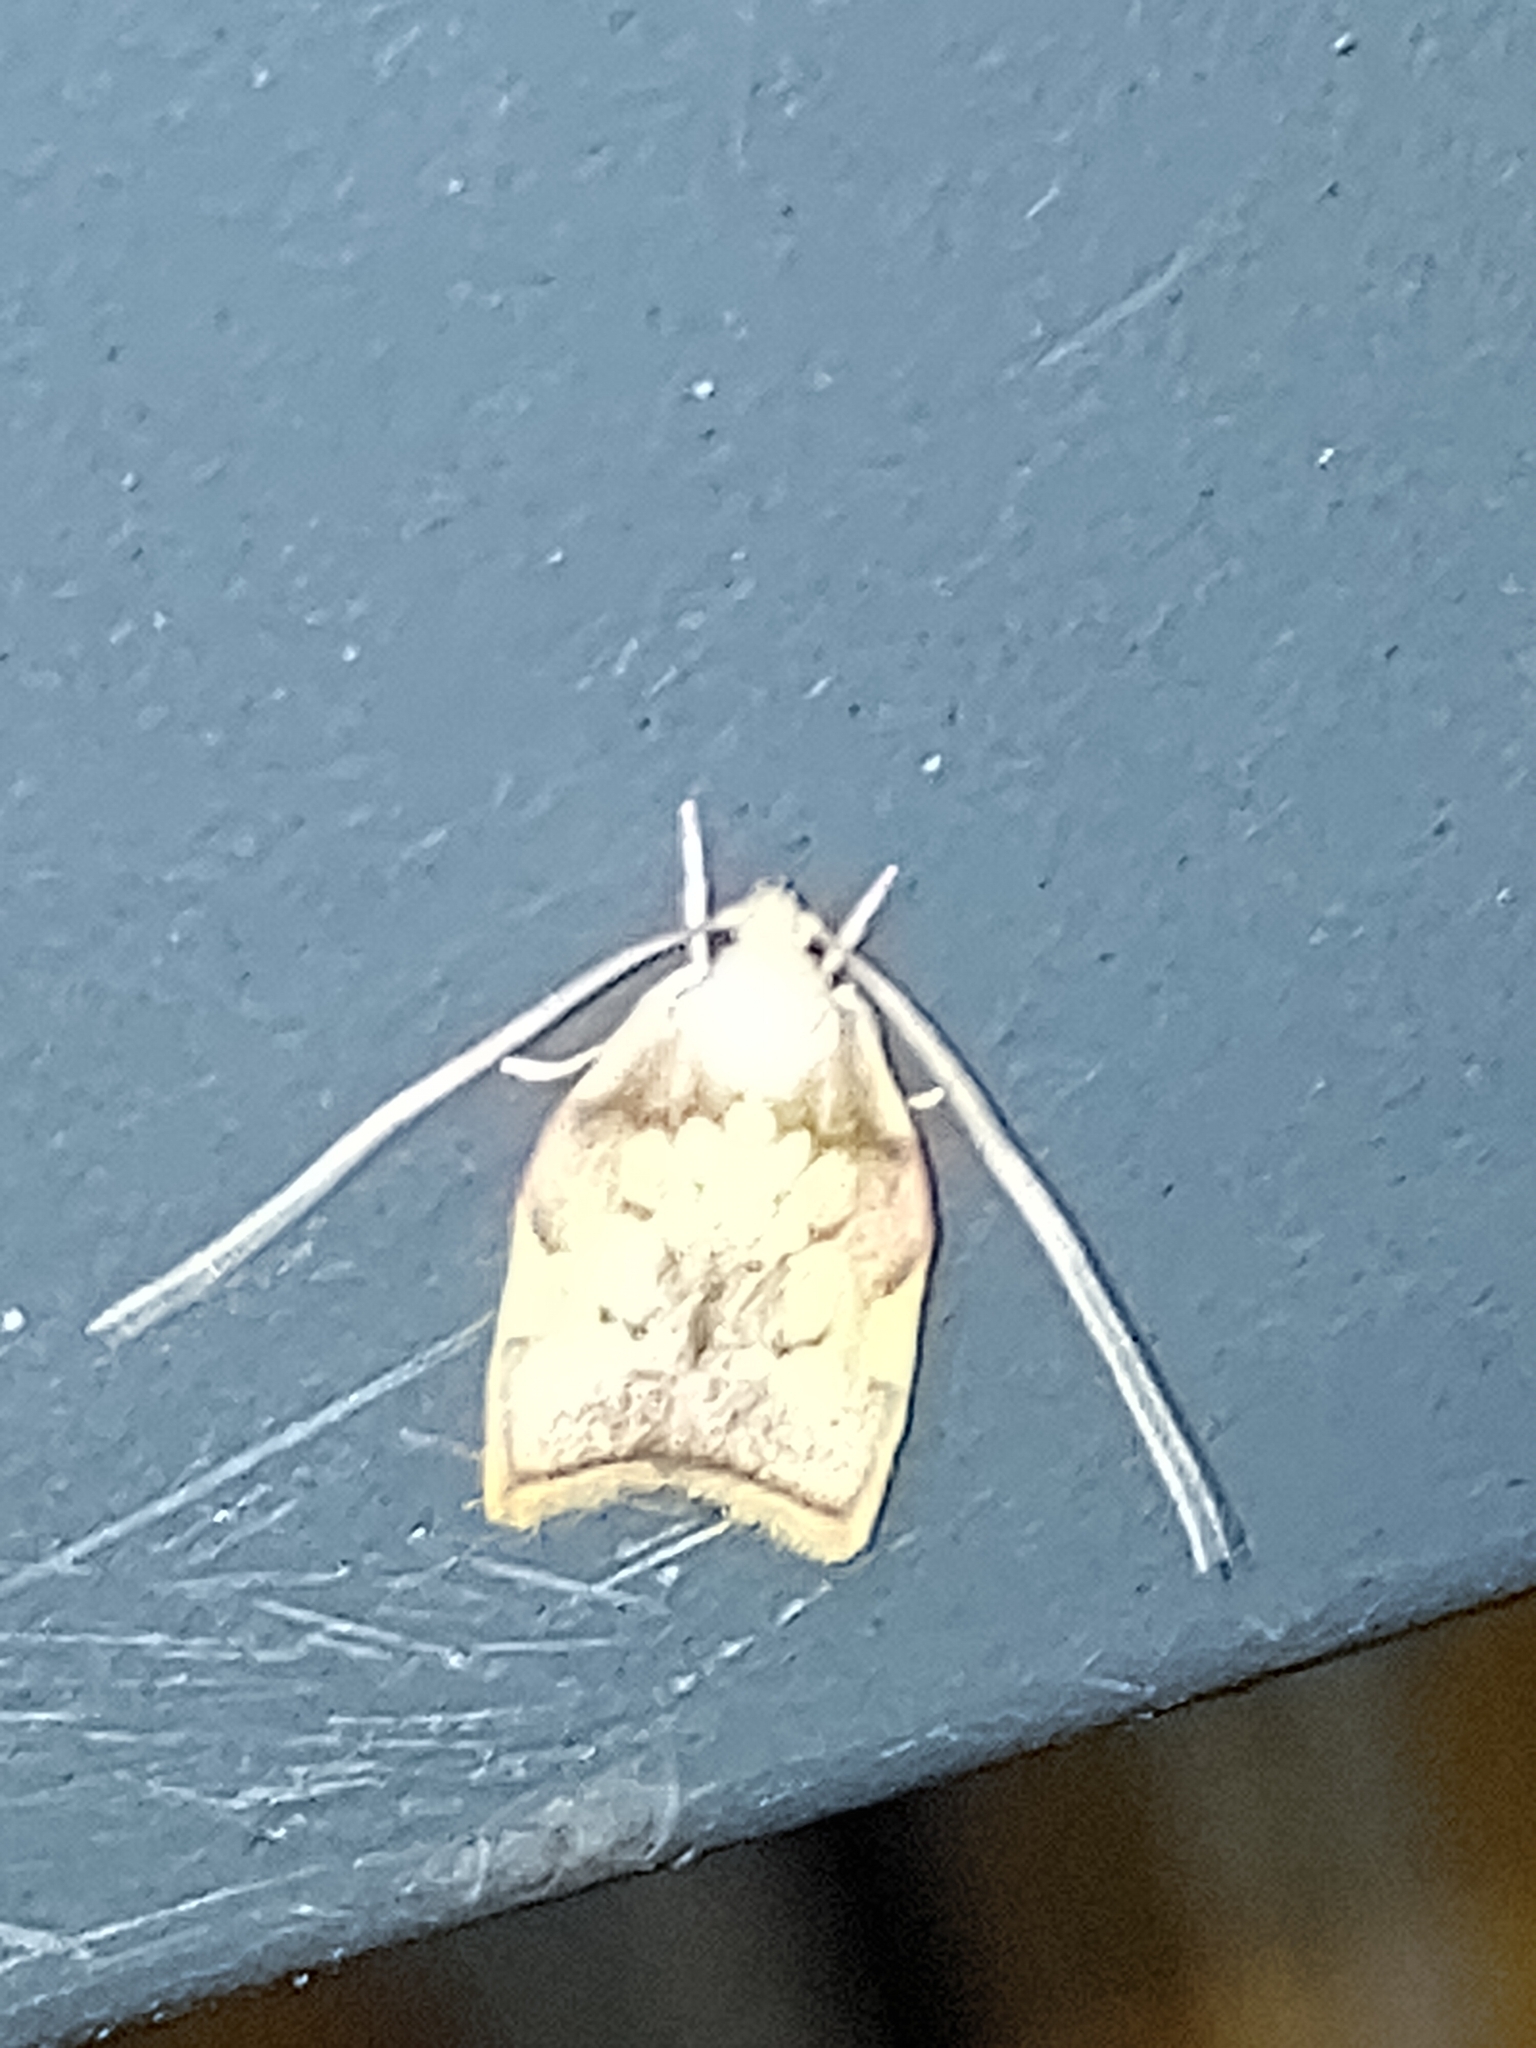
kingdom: Animalia
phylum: Arthropoda
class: Insecta
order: Lepidoptera
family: Peleopodidae
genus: Carcina
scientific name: Carcina quercana
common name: Moth
